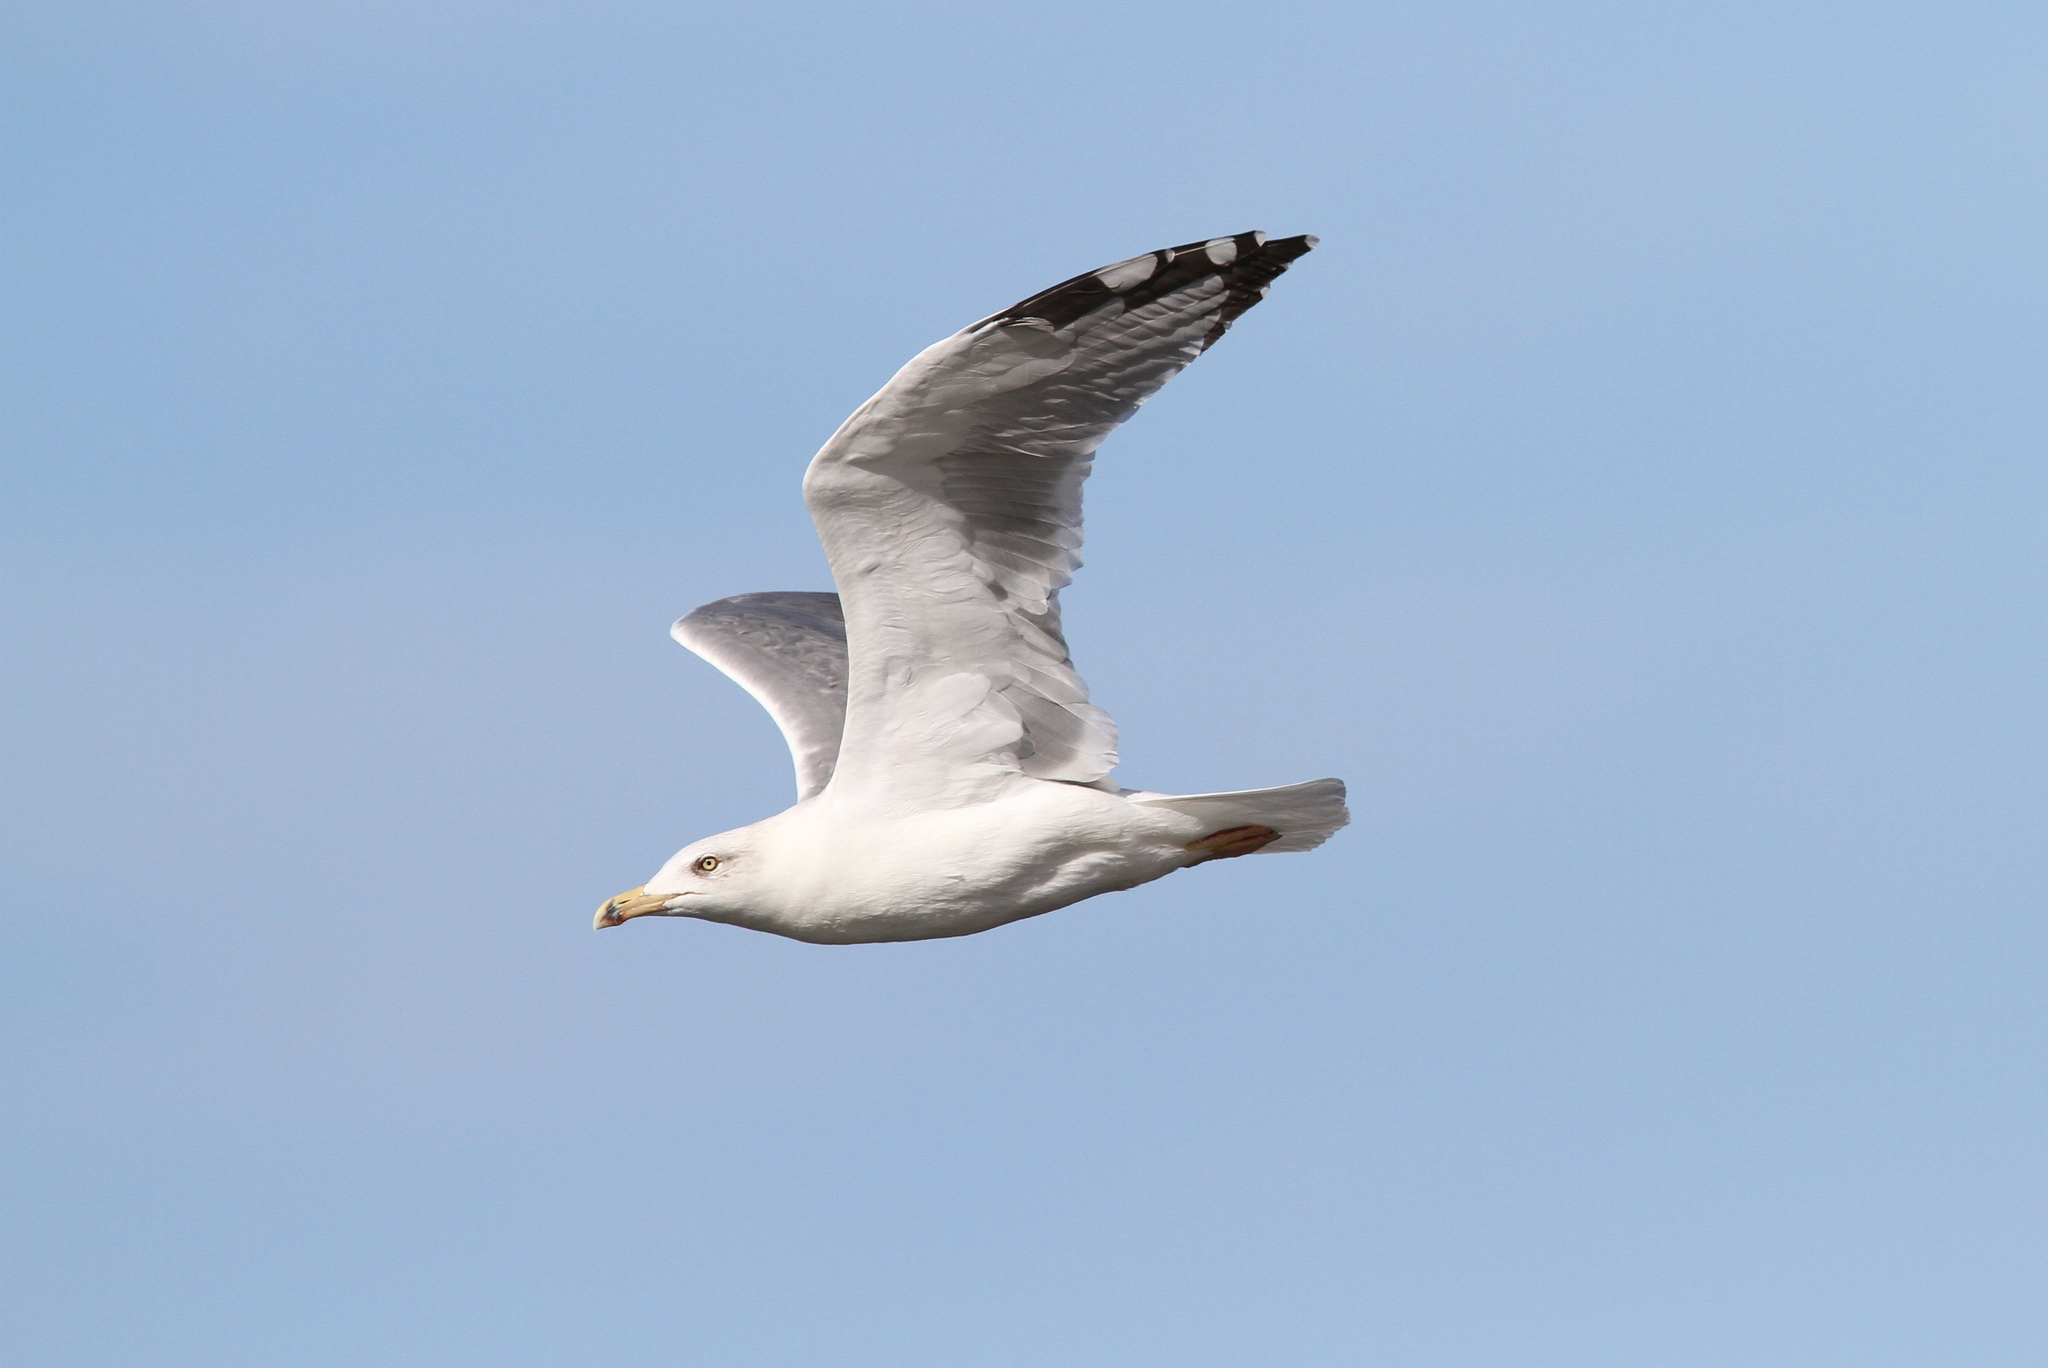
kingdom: Animalia
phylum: Chordata
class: Aves
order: Charadriiformes
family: Laridae
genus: Larus
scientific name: Larus michahellis
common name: Yellow-legged gull
